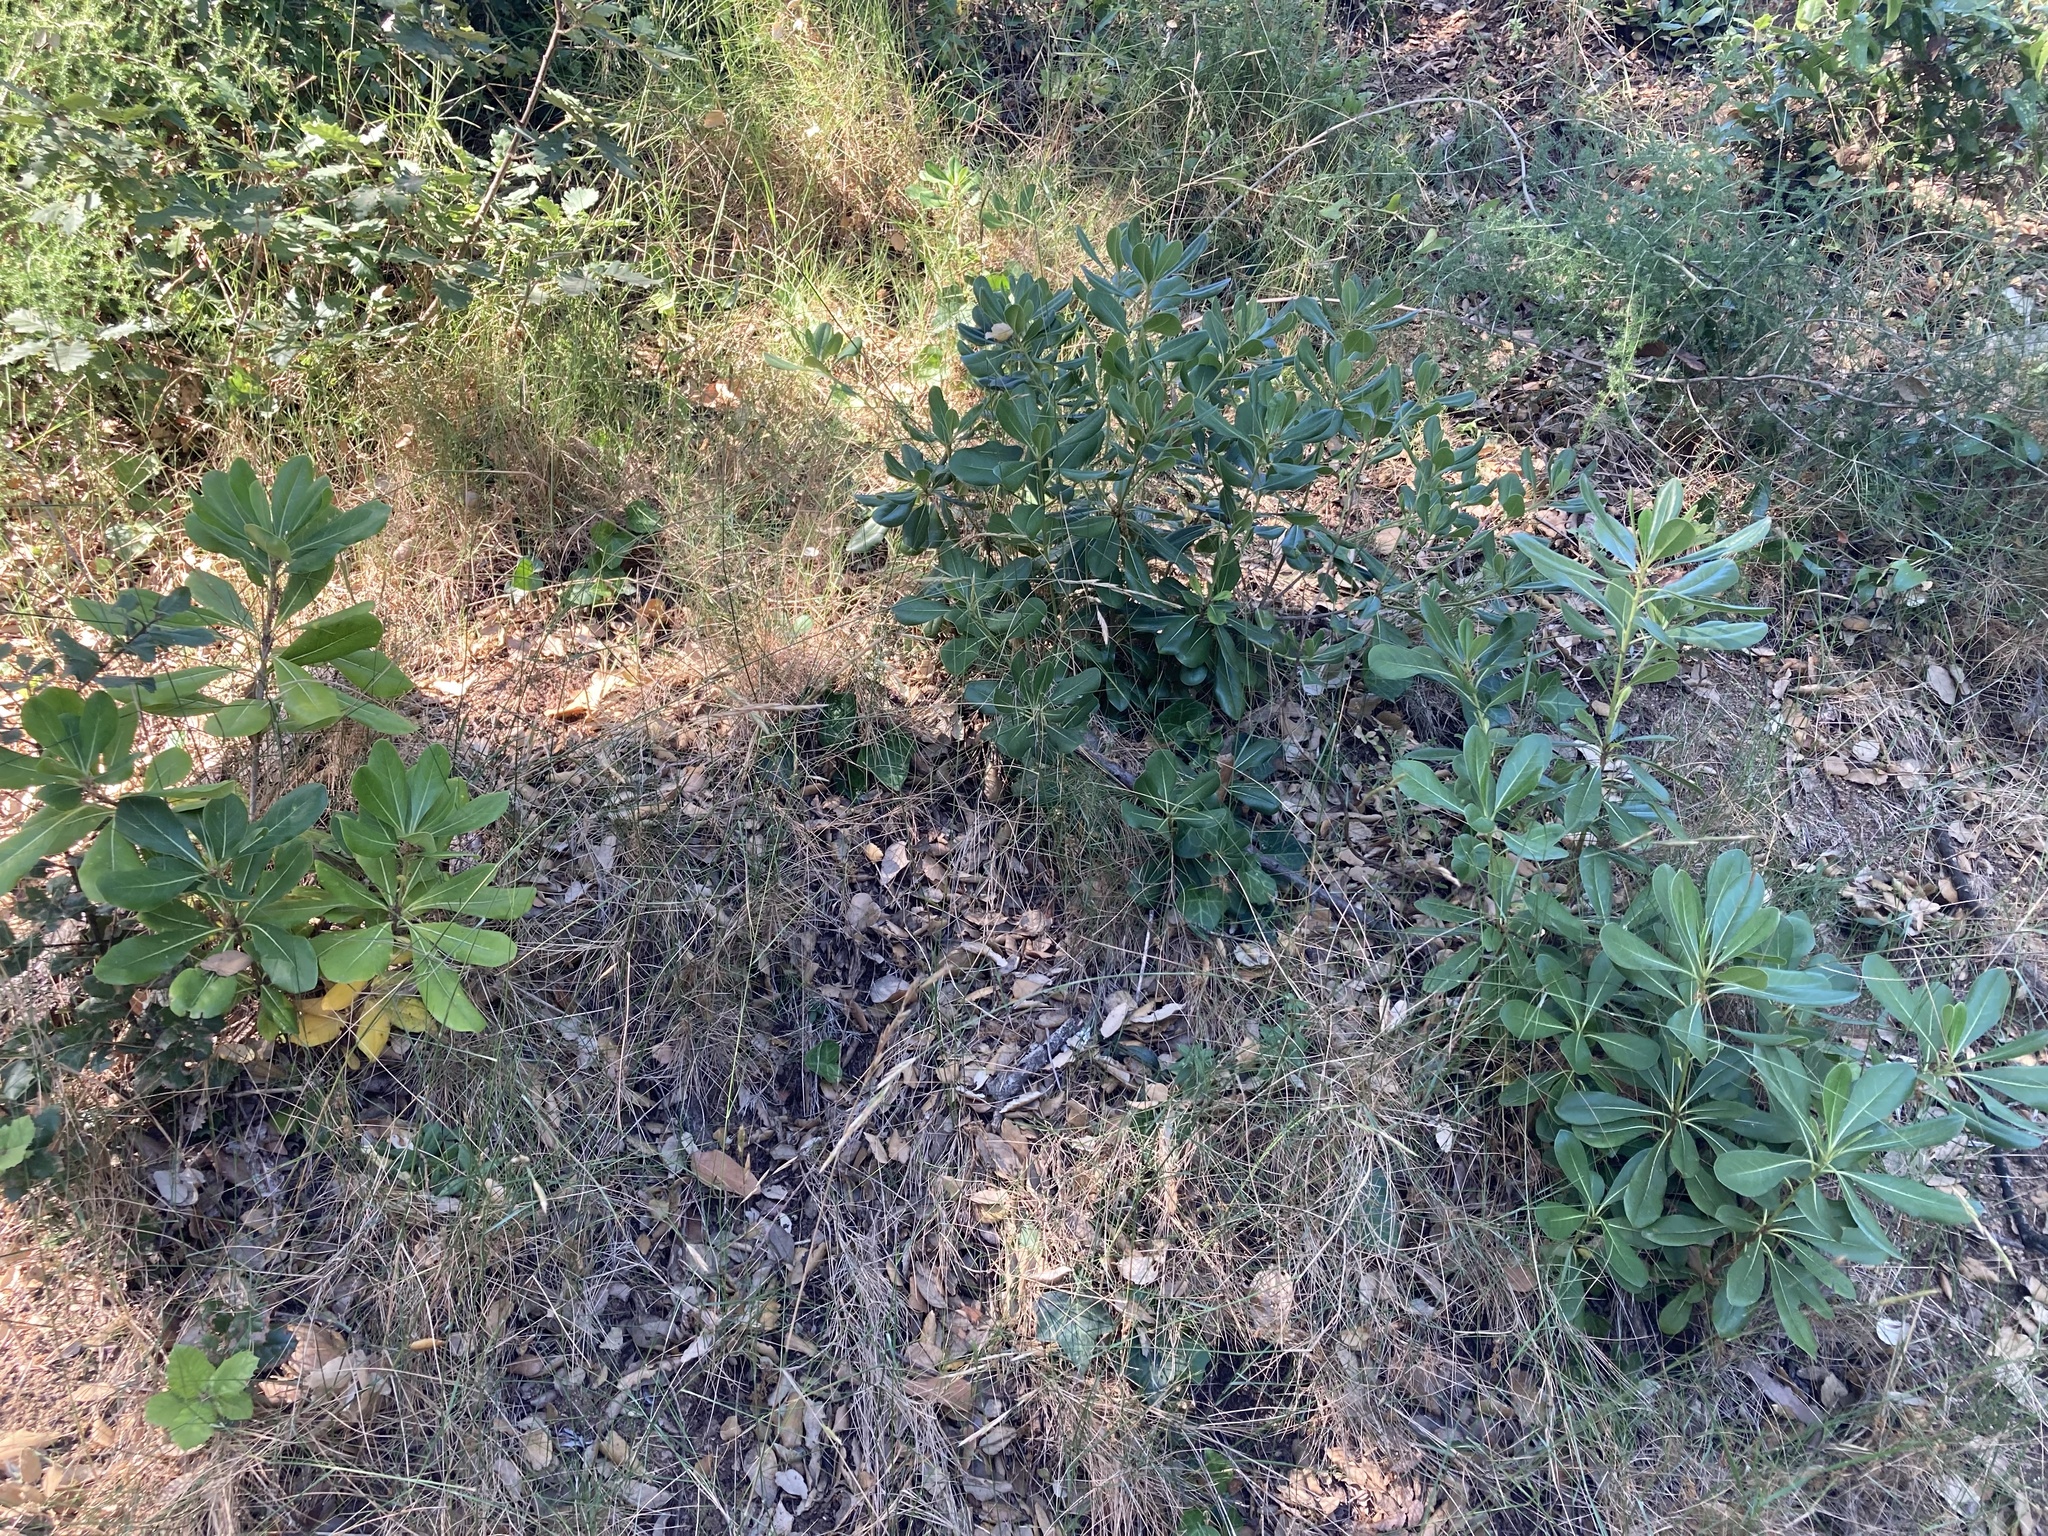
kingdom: Plantae
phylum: Tracheophyta
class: Magnoliopsida
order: Apiales
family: Pittosporaceae
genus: Pittosporum
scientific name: Pittosporum tobira
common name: Japanese cheesewood
